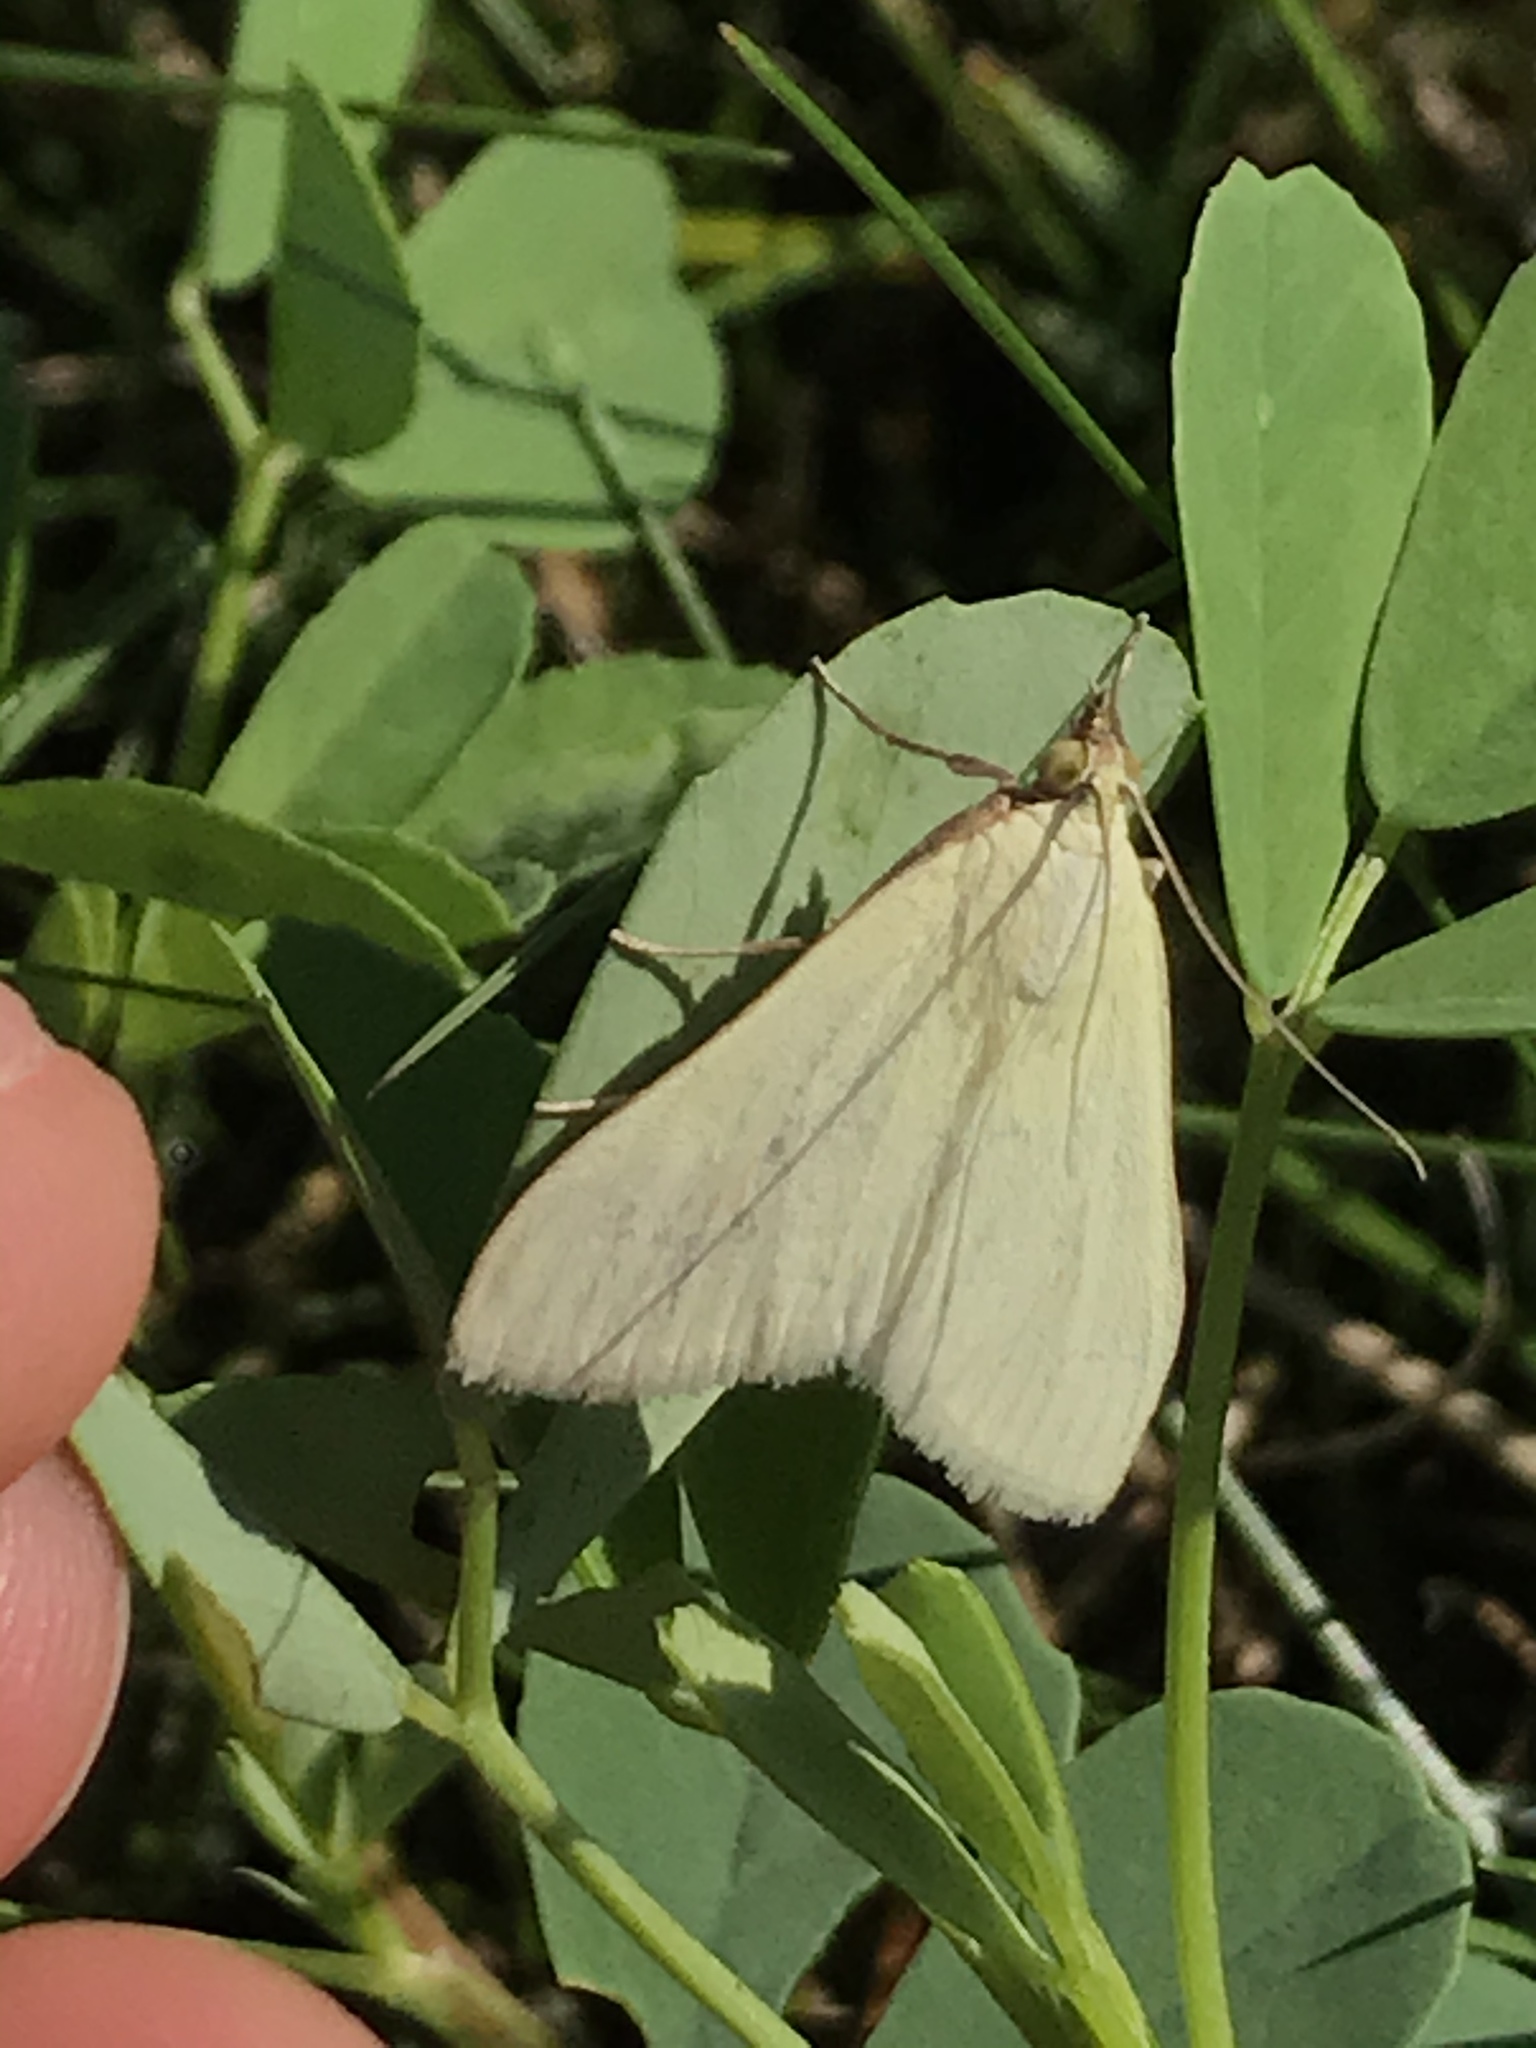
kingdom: Animalia
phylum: Arthropoda
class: Insecta
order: Lepidoptera
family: Crambidae
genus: Sitochroa
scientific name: Sitochroa palealis
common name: Greenish-yellow sitochroa moth
